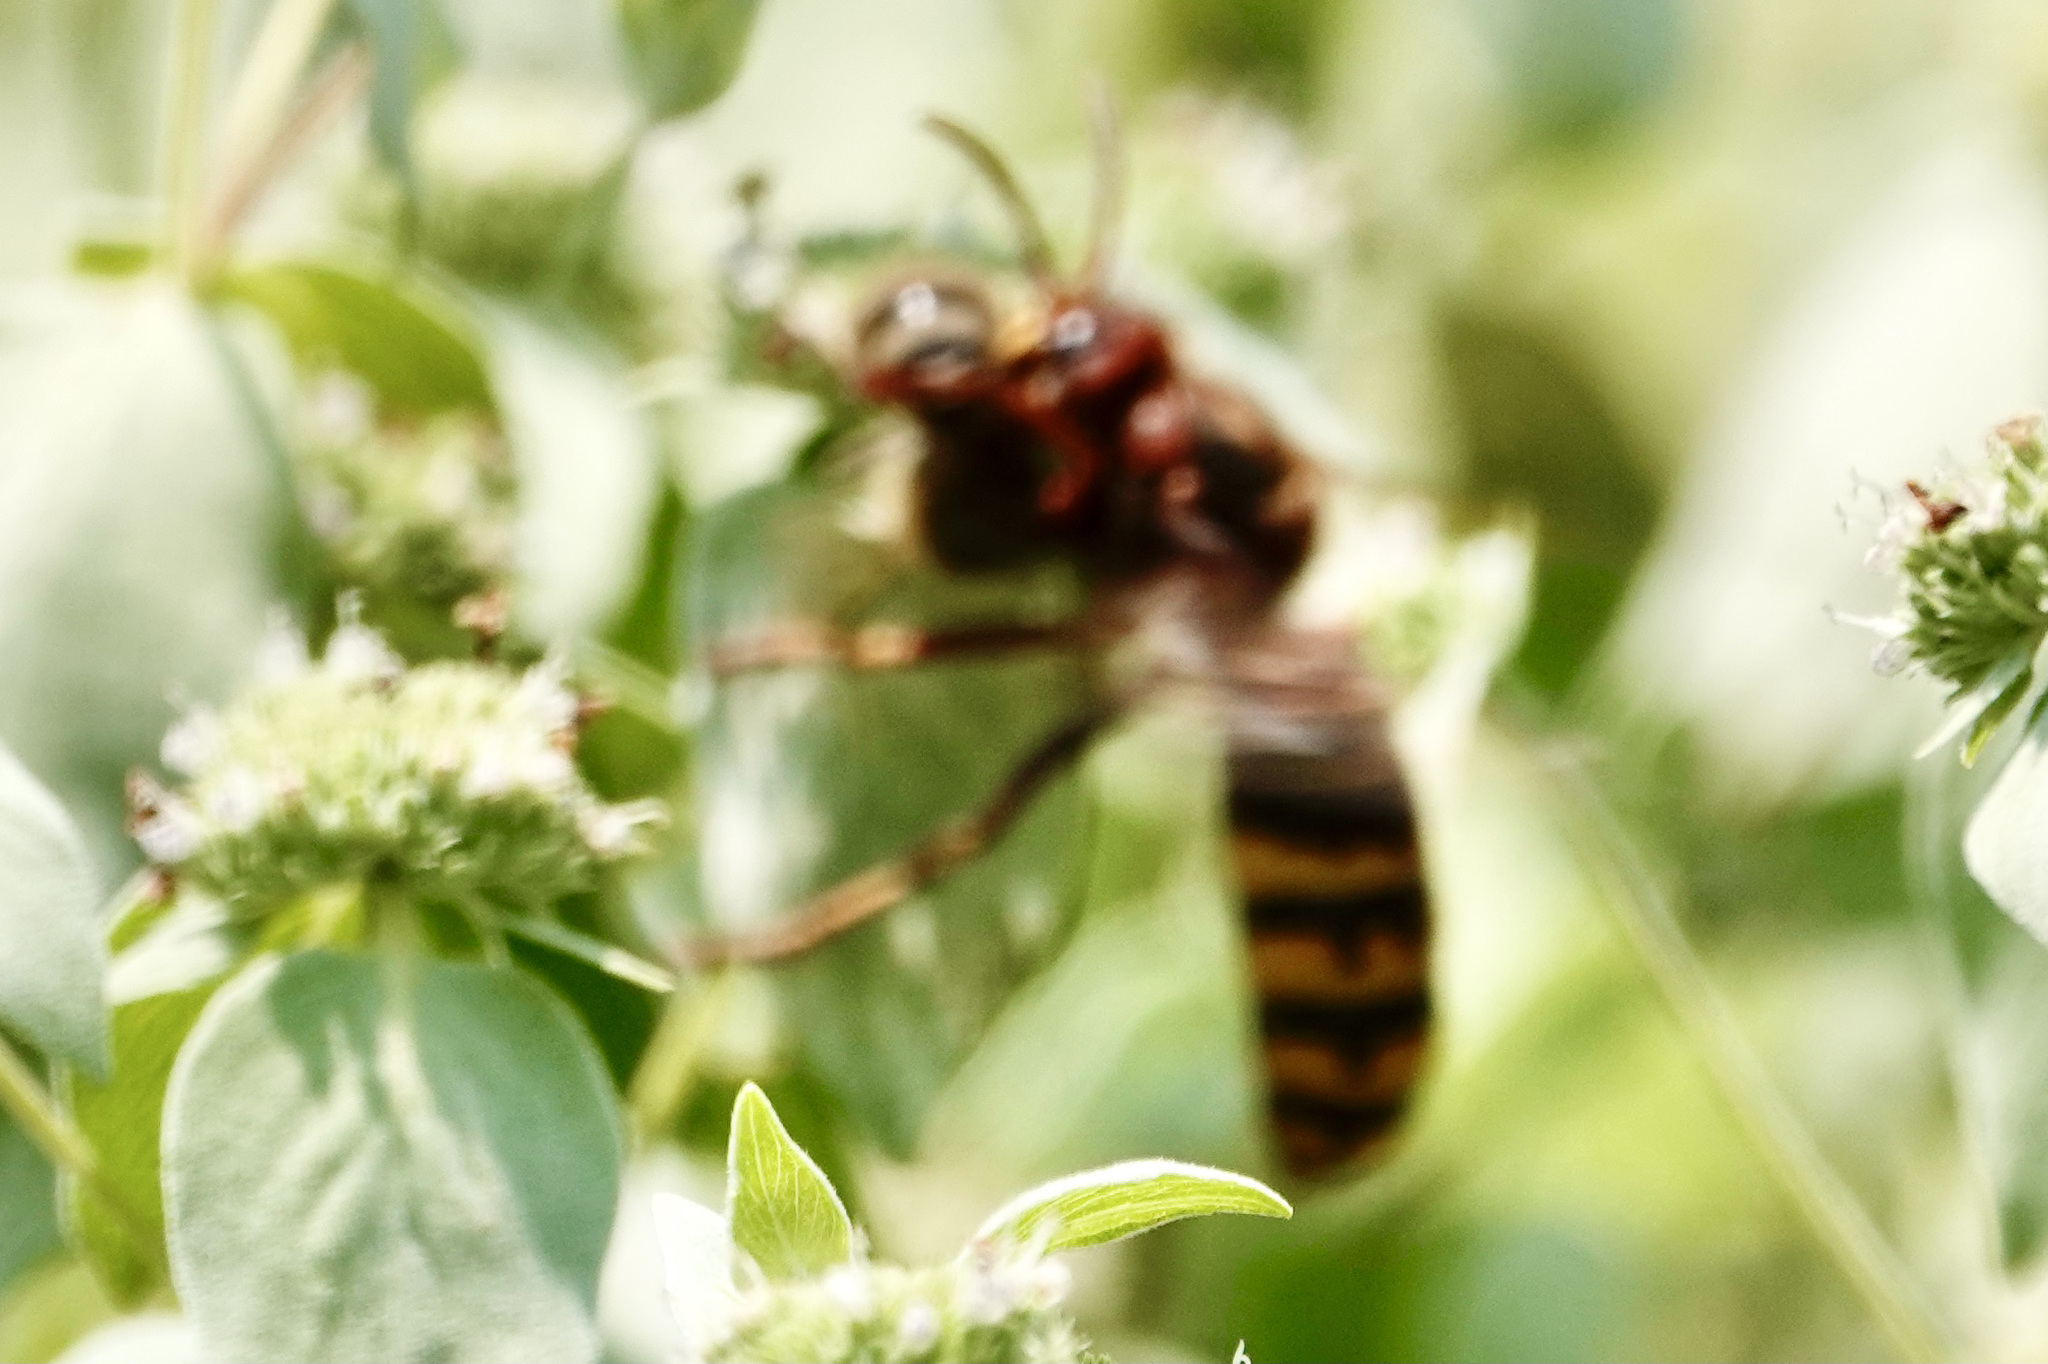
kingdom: Animalia
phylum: Arthropoda
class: Insecta
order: Hymenoptera
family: Vespidae
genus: Vespa
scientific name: Vespa crabro
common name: Hornet
